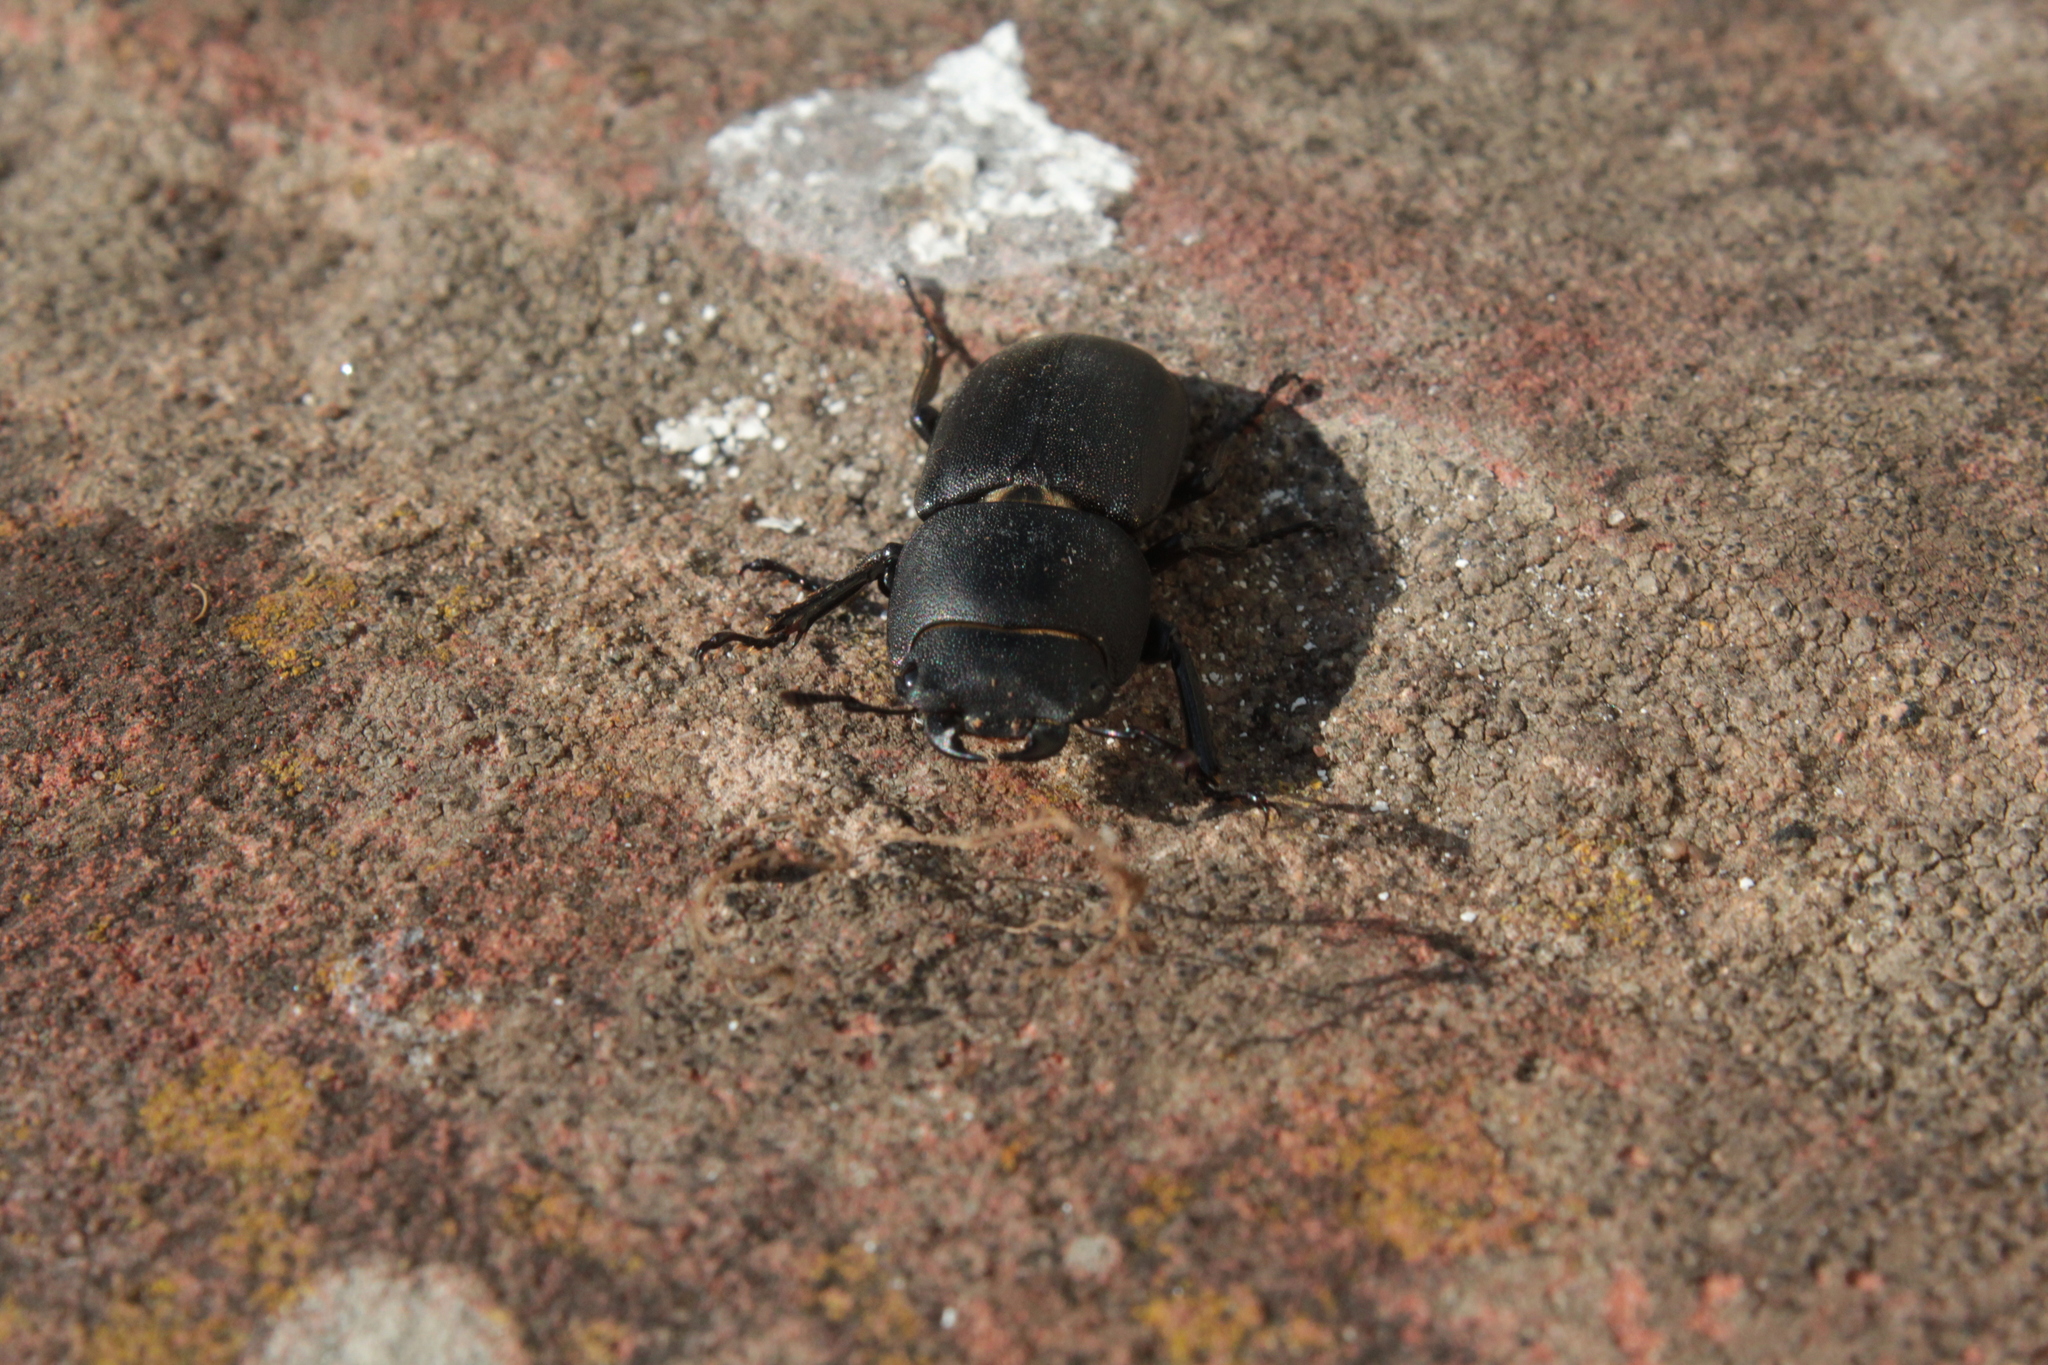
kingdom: Animalia
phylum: Arthropoda
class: Insecta
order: Coleoptera
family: Lucanidae
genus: Dorcus
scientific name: Dorcus parallelipipedus
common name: Lesser stag beetle
